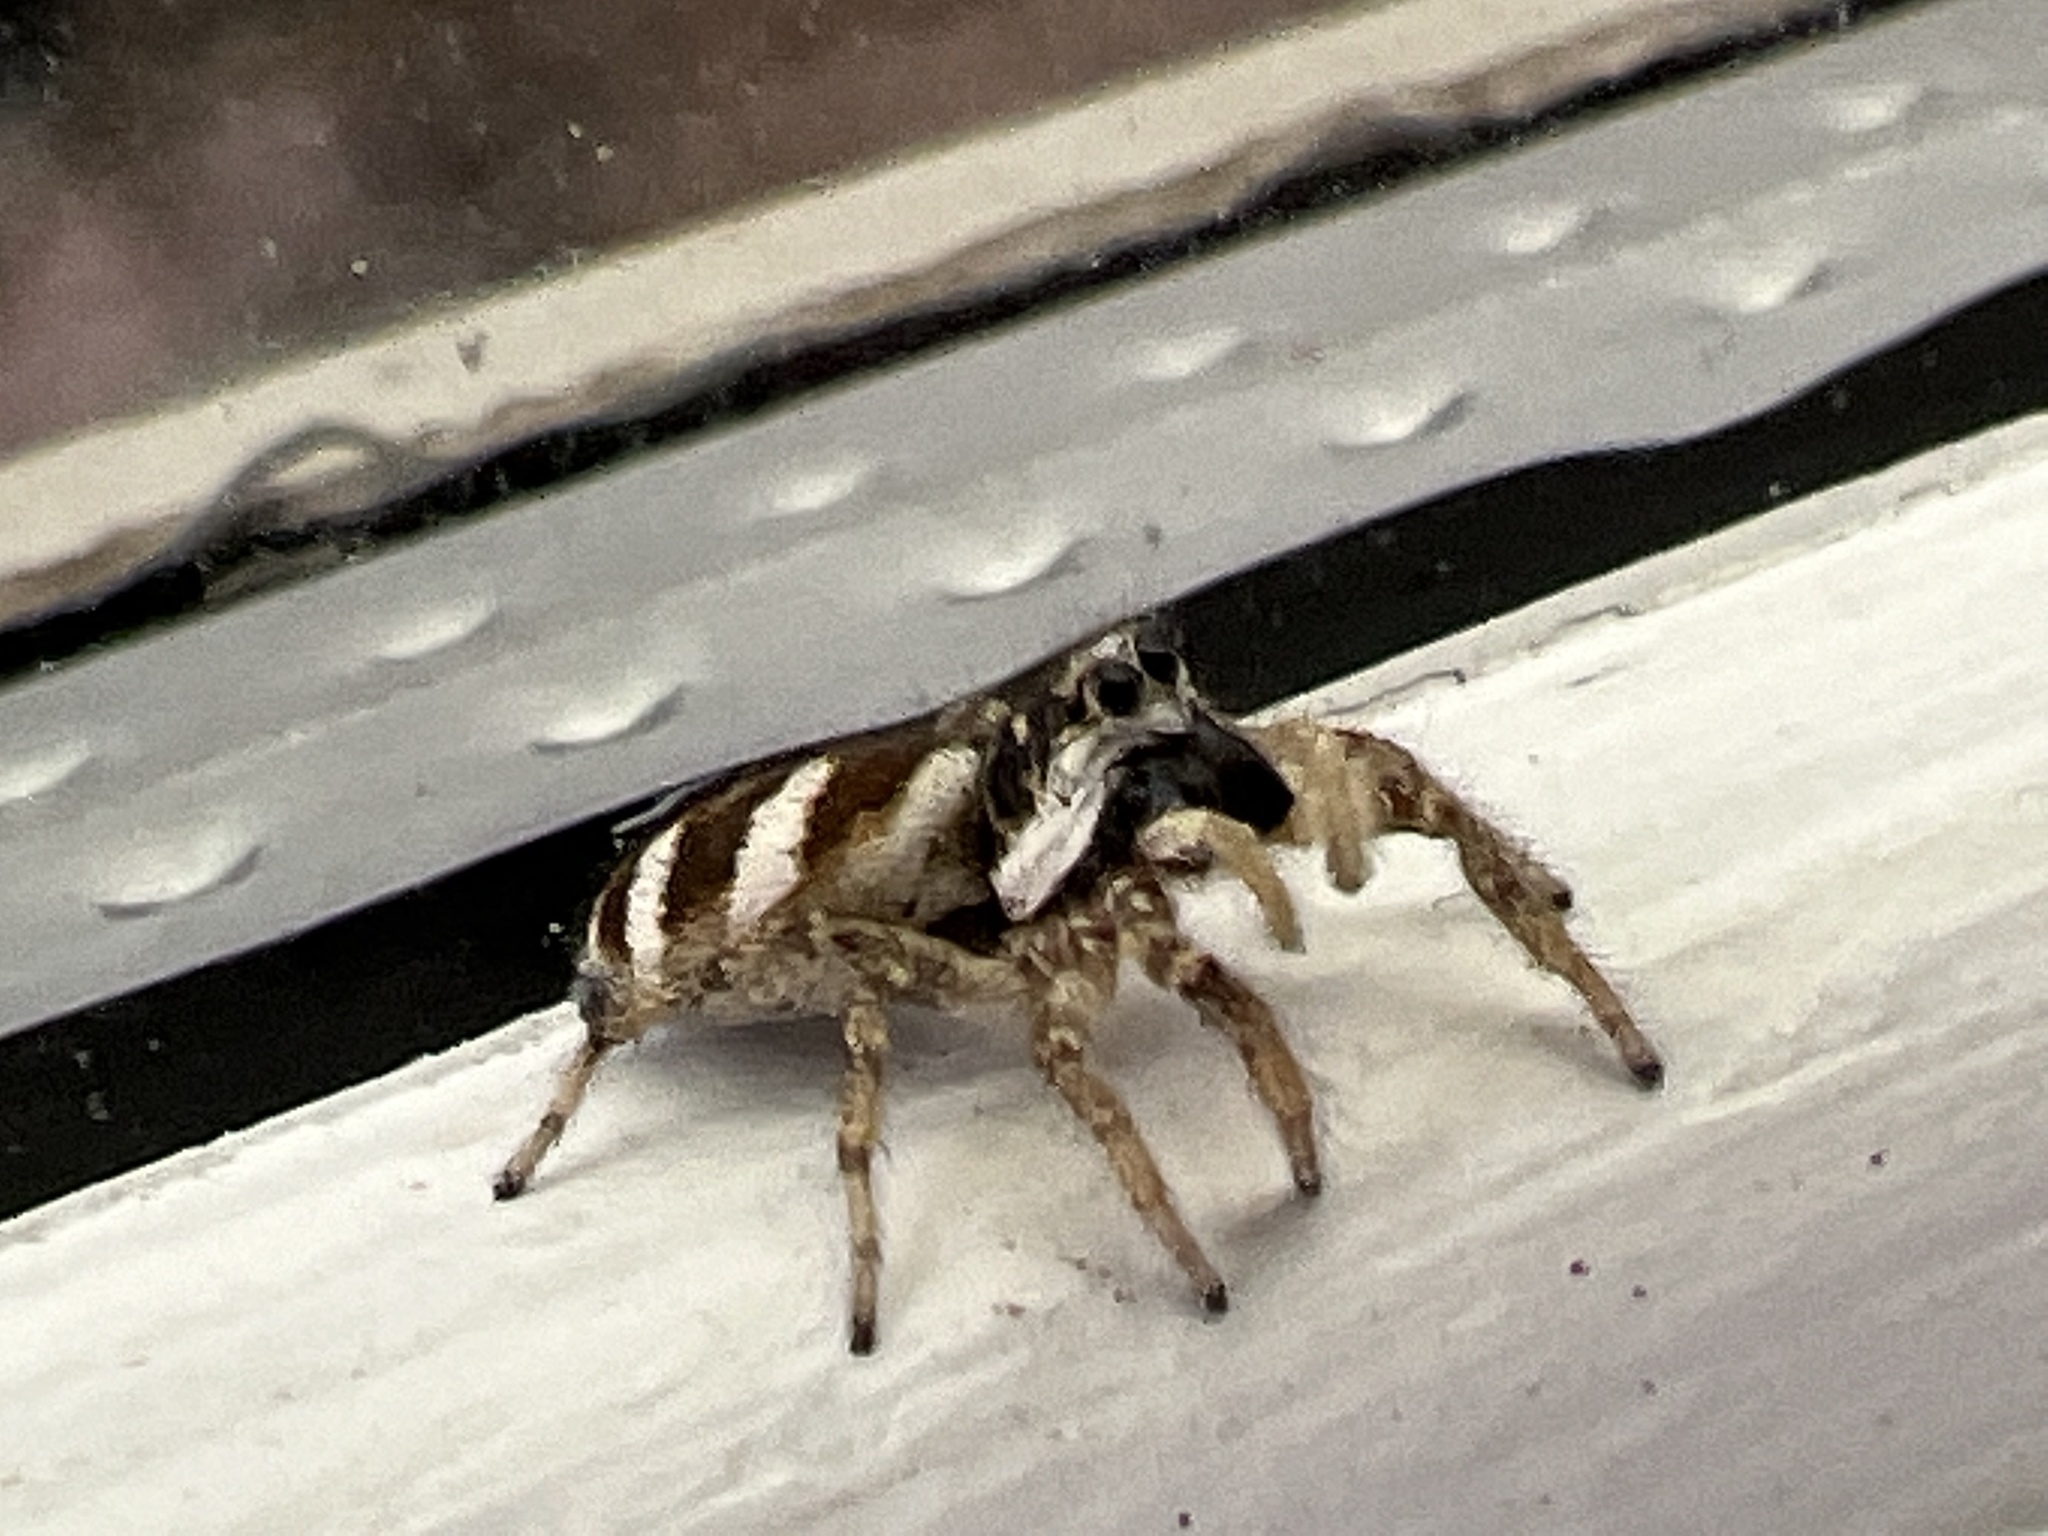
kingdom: Animalia
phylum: Arthropoda
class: Arachnida
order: Araneae
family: Salticidae
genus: Salticus
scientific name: Salticus scenicus
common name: Zebra jumper
